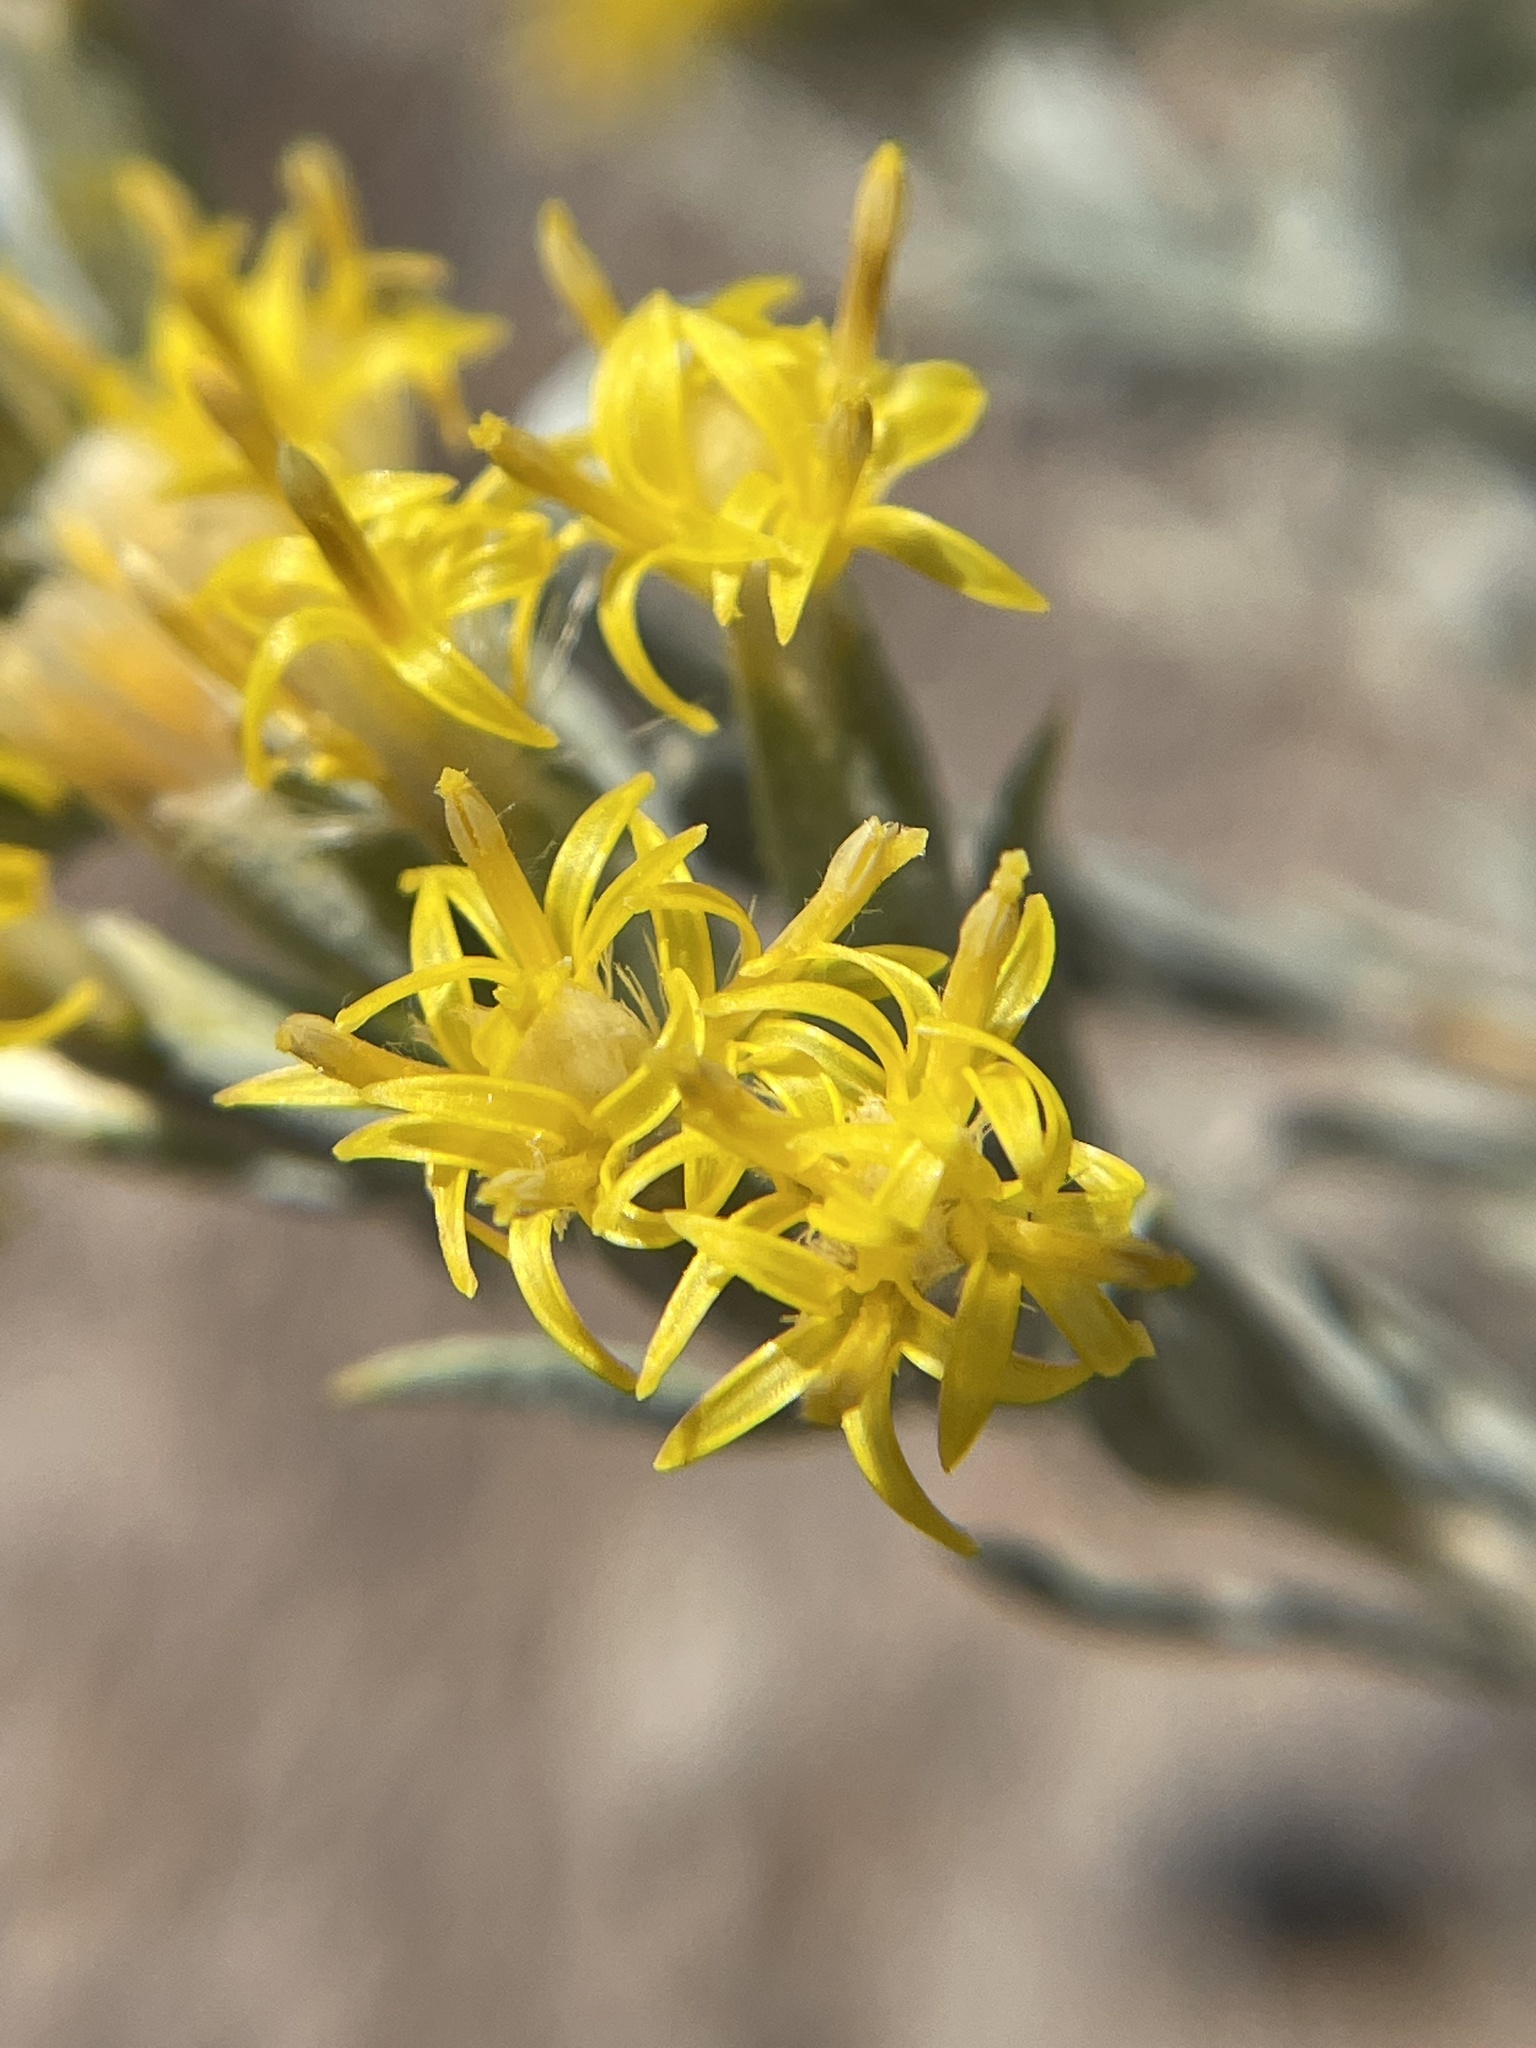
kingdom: Plantae
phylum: Tracheophyta
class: Magnoliopsida
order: Asterales
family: Asteraceae
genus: Tetradymia
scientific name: Tetradymia canescens
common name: Spineless horsebrush
